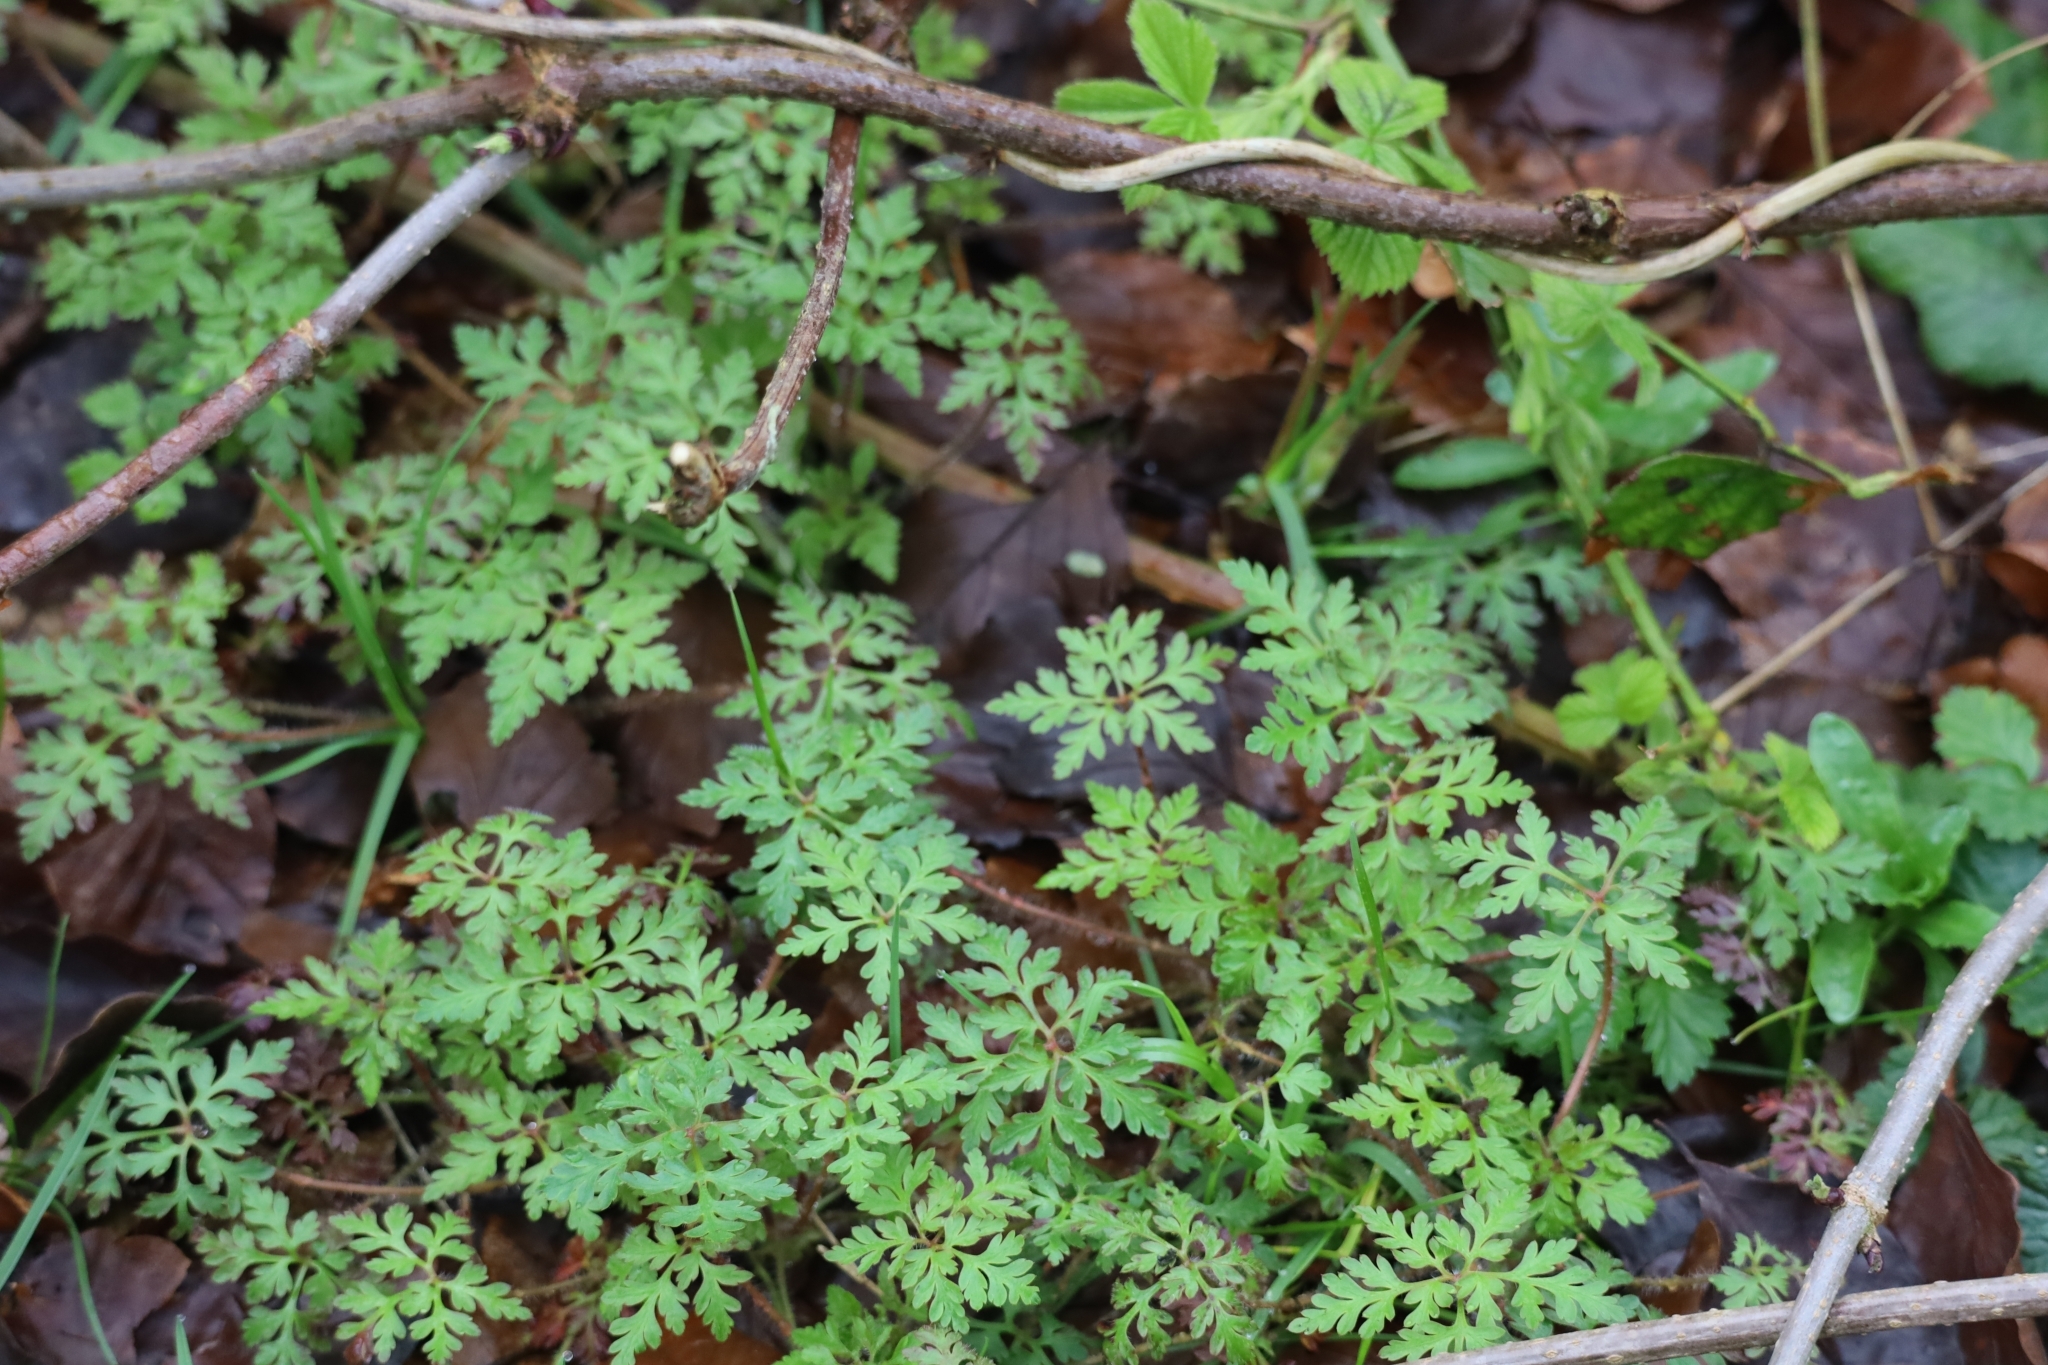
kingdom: Plantae
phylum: Tracheophyta
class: Magnoliopsida
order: Geraniales
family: Geraniaceae
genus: Geranium
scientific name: Geranium robertianum
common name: Herb-robert
